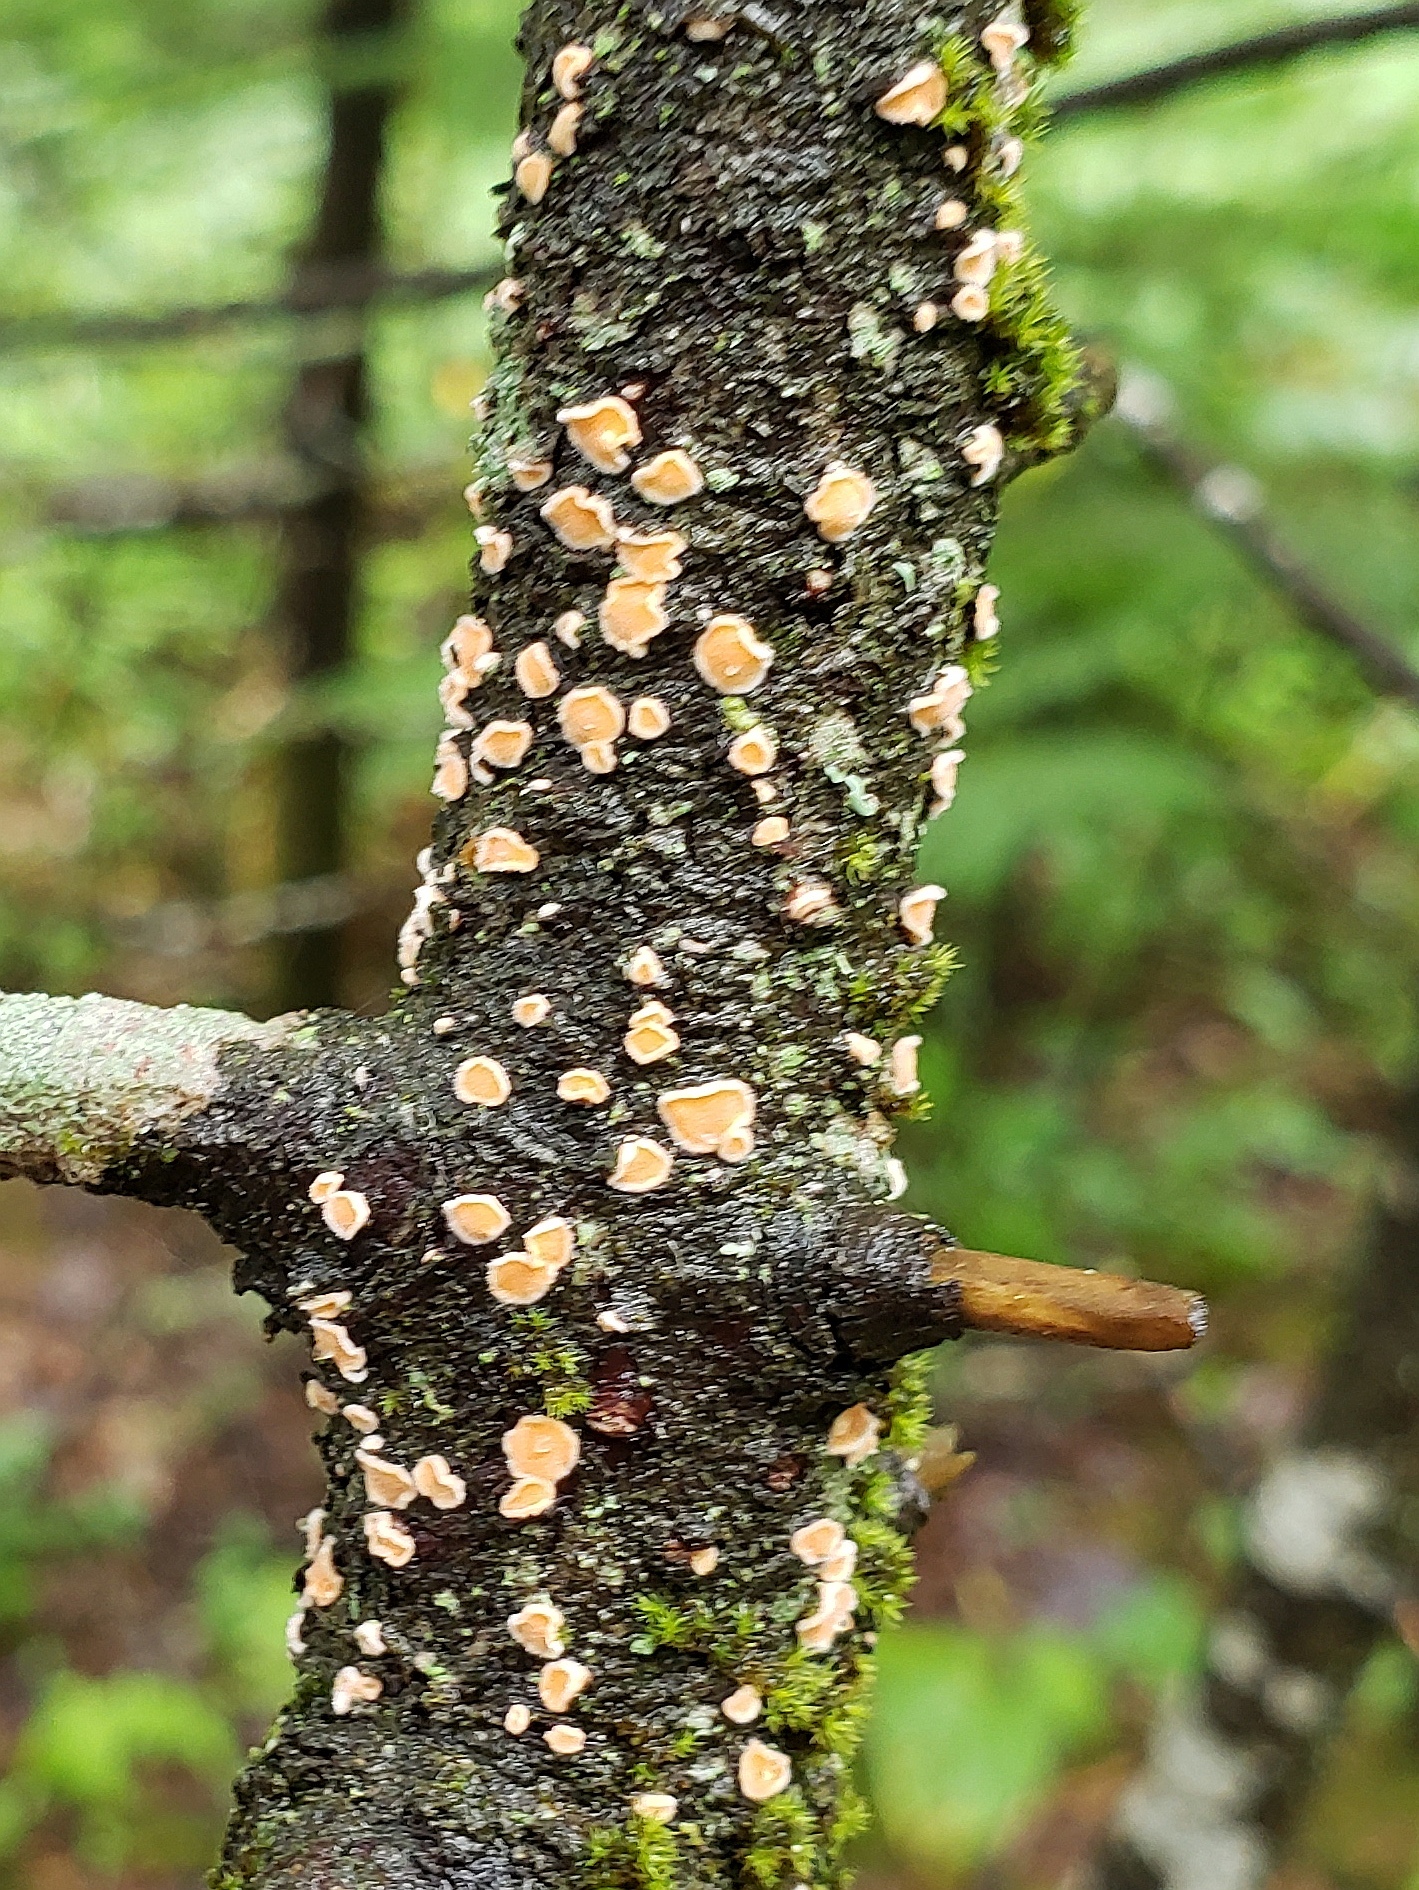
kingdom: Fungi
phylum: Basidiomycota
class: Agaricomycetes
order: Russulales
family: Stereaceae
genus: Aleurodiscus
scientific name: Aleurodiscus amorphus
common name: Orange discus
